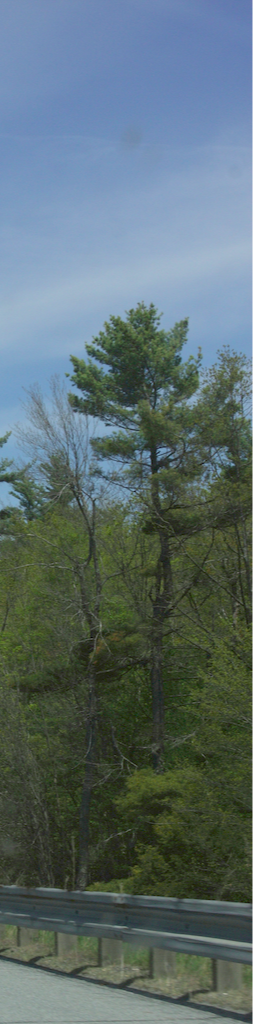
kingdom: Plantae
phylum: Tracheophyta
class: Pinopsida
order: Pinales
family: Pinaceae
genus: Pinus
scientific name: Pinus strobus
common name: Weymouth pine
